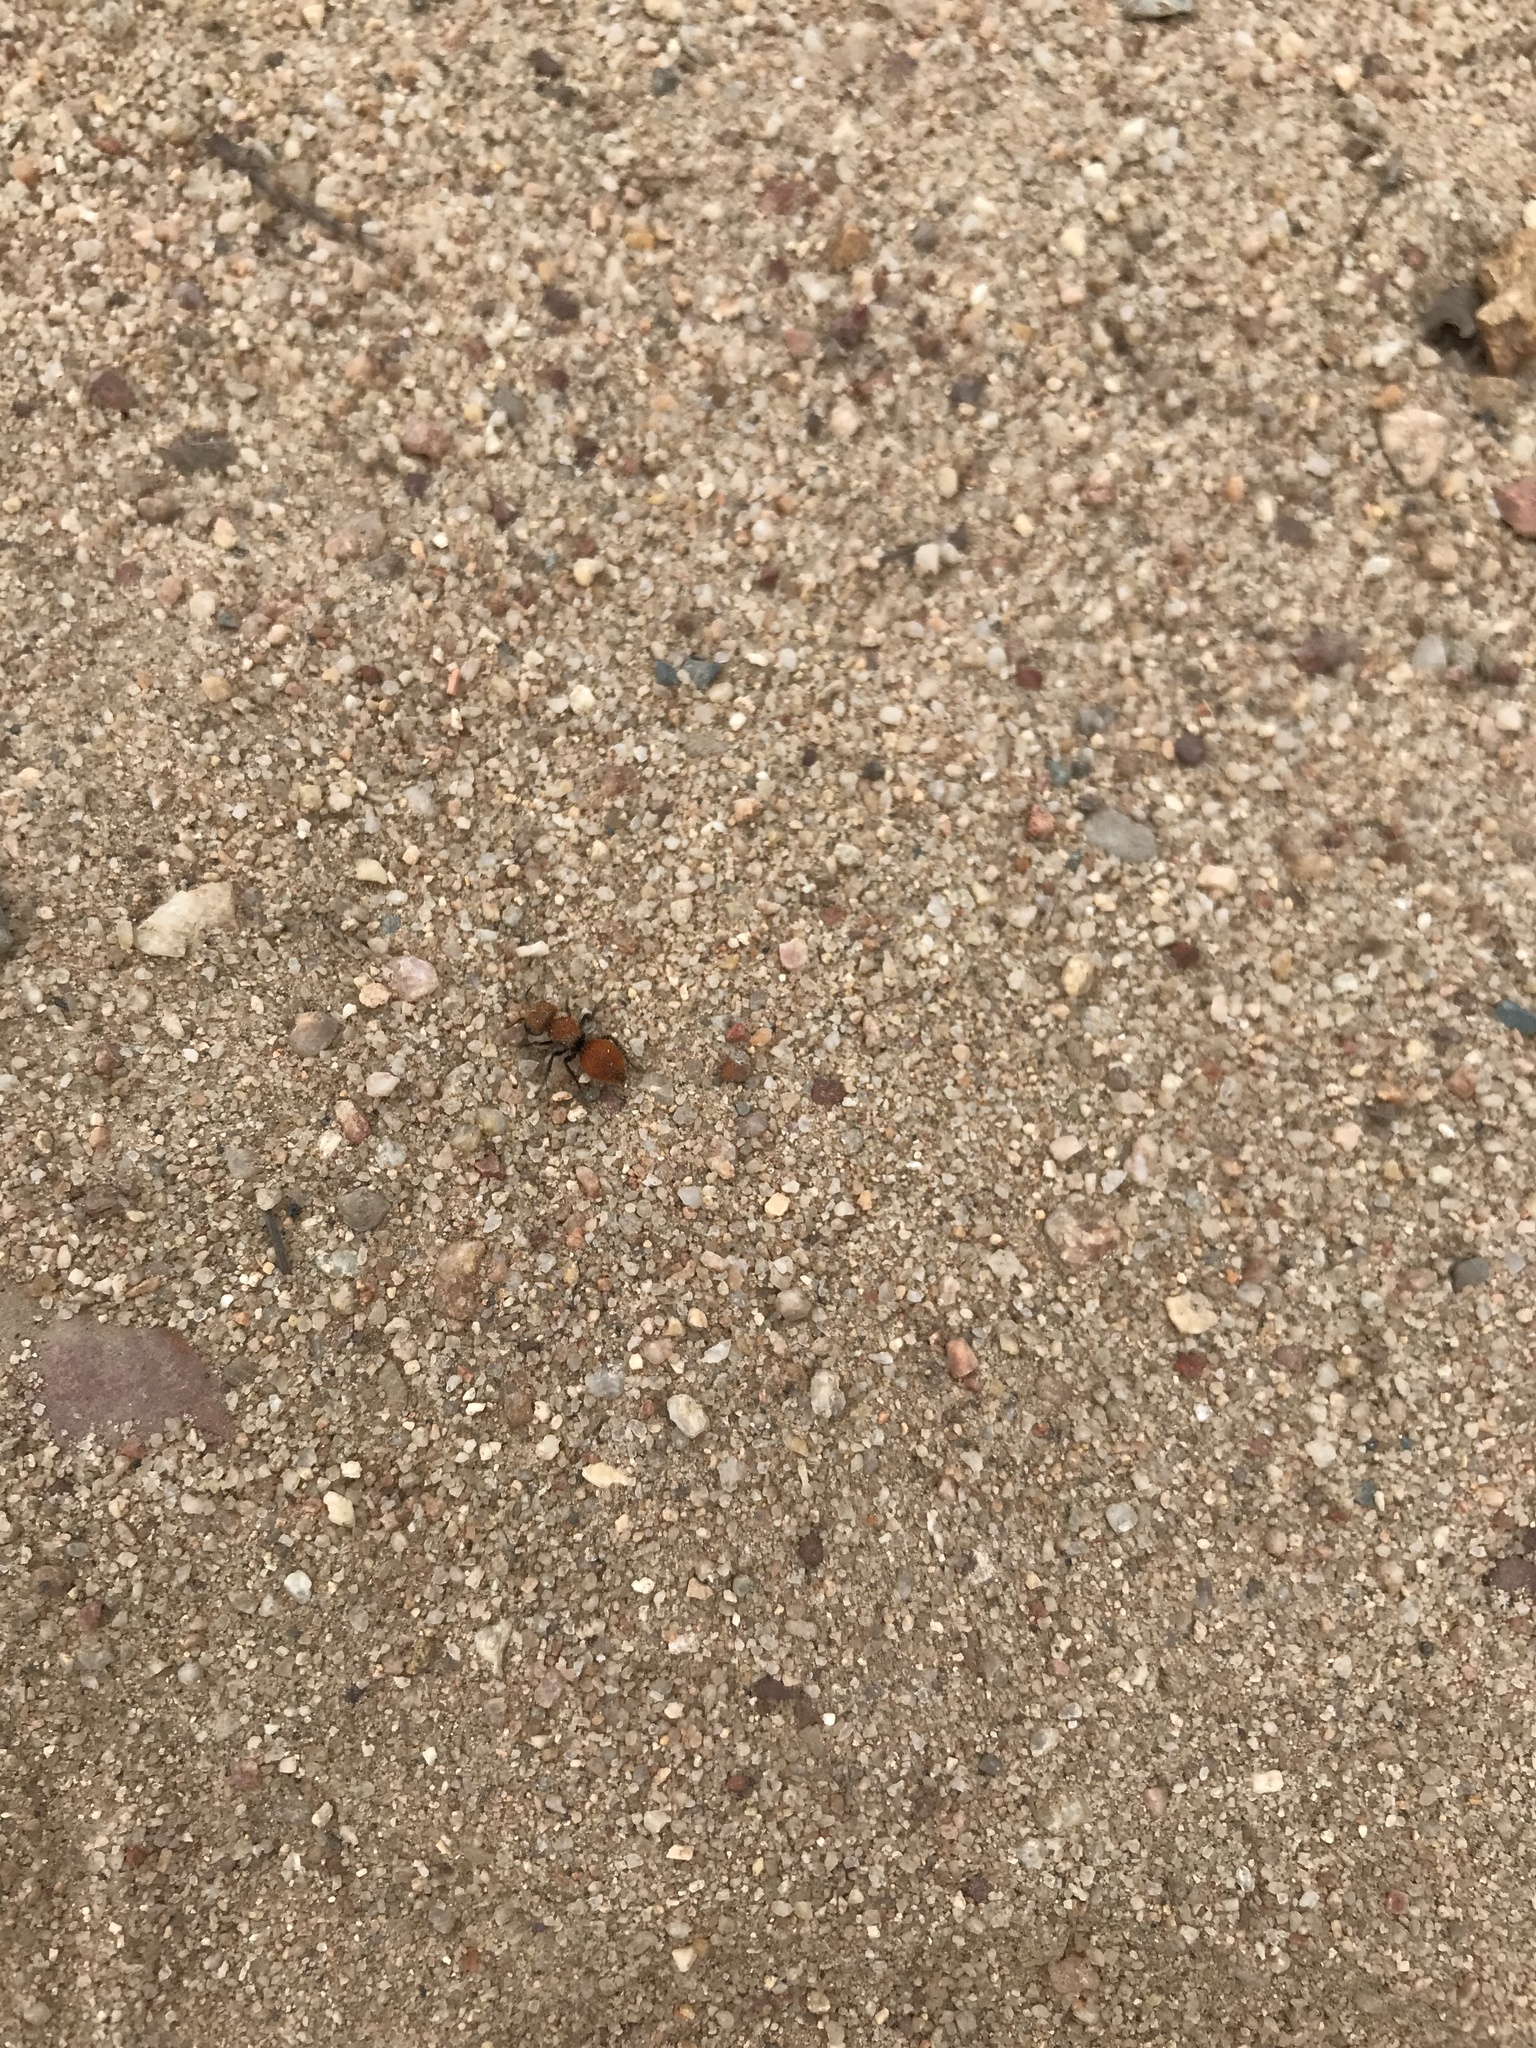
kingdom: Animalia
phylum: Arthropoda
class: Insecta
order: Hymenoptera
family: Mutillidae
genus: Pseudomethoca
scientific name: Pseudomethoca
